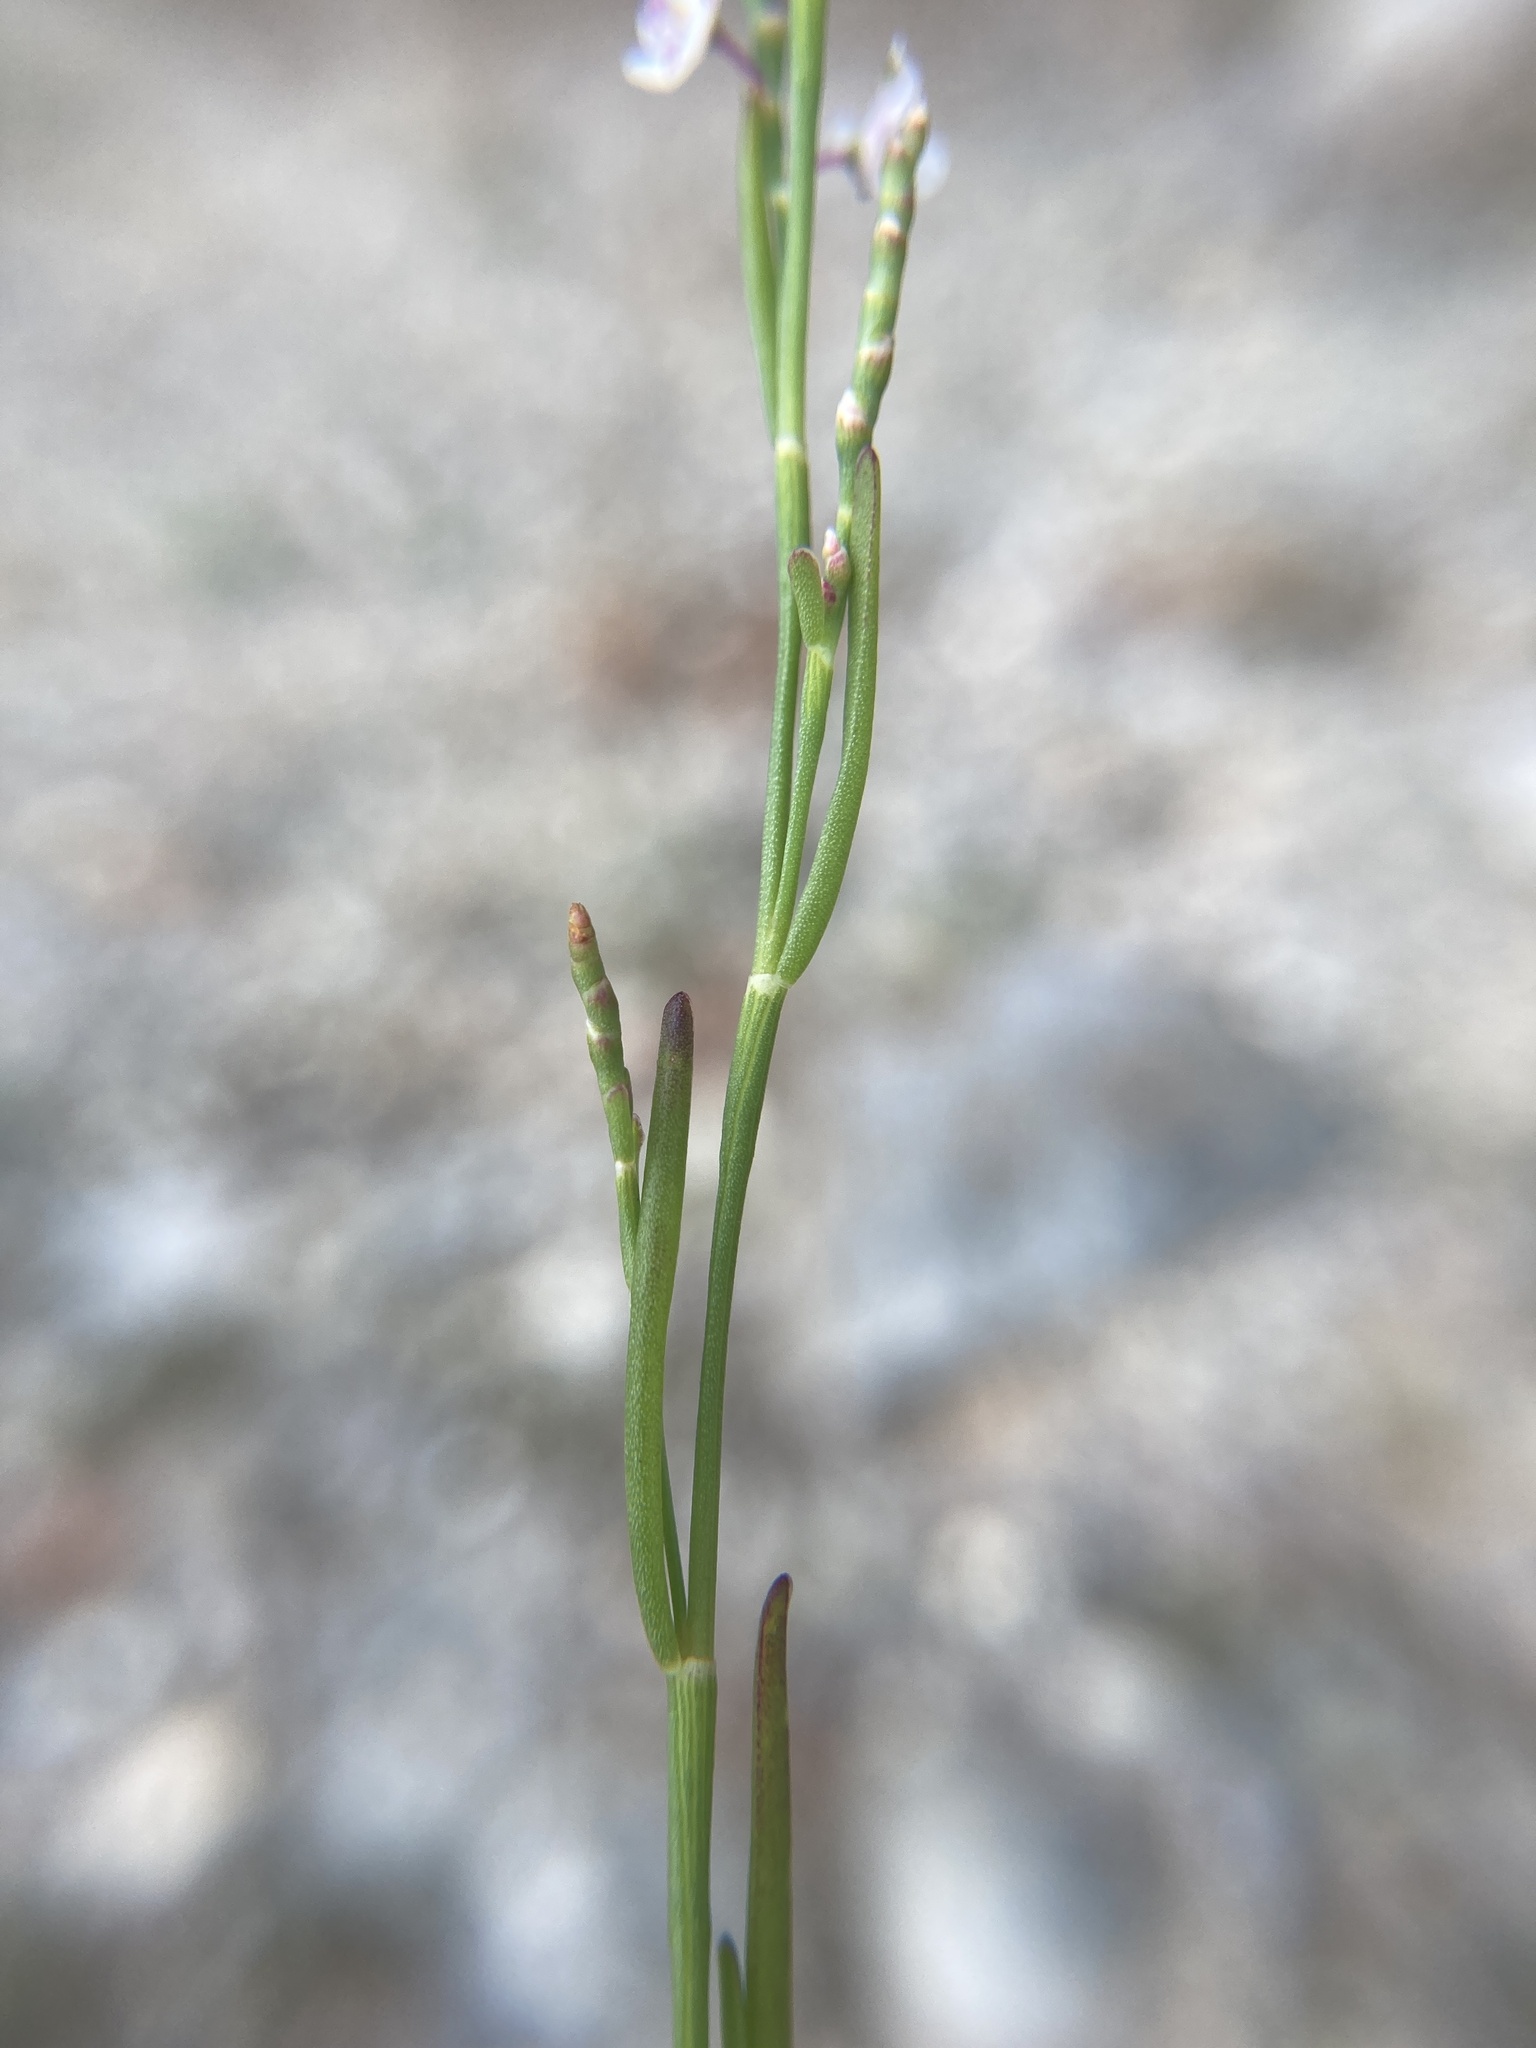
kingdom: Plantae
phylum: Tracheophyta
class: Magnoliopsida
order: Caryophyllales
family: Polygonaceae
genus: Polygonella
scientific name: Polygonella articulata
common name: Coastal jointweed
